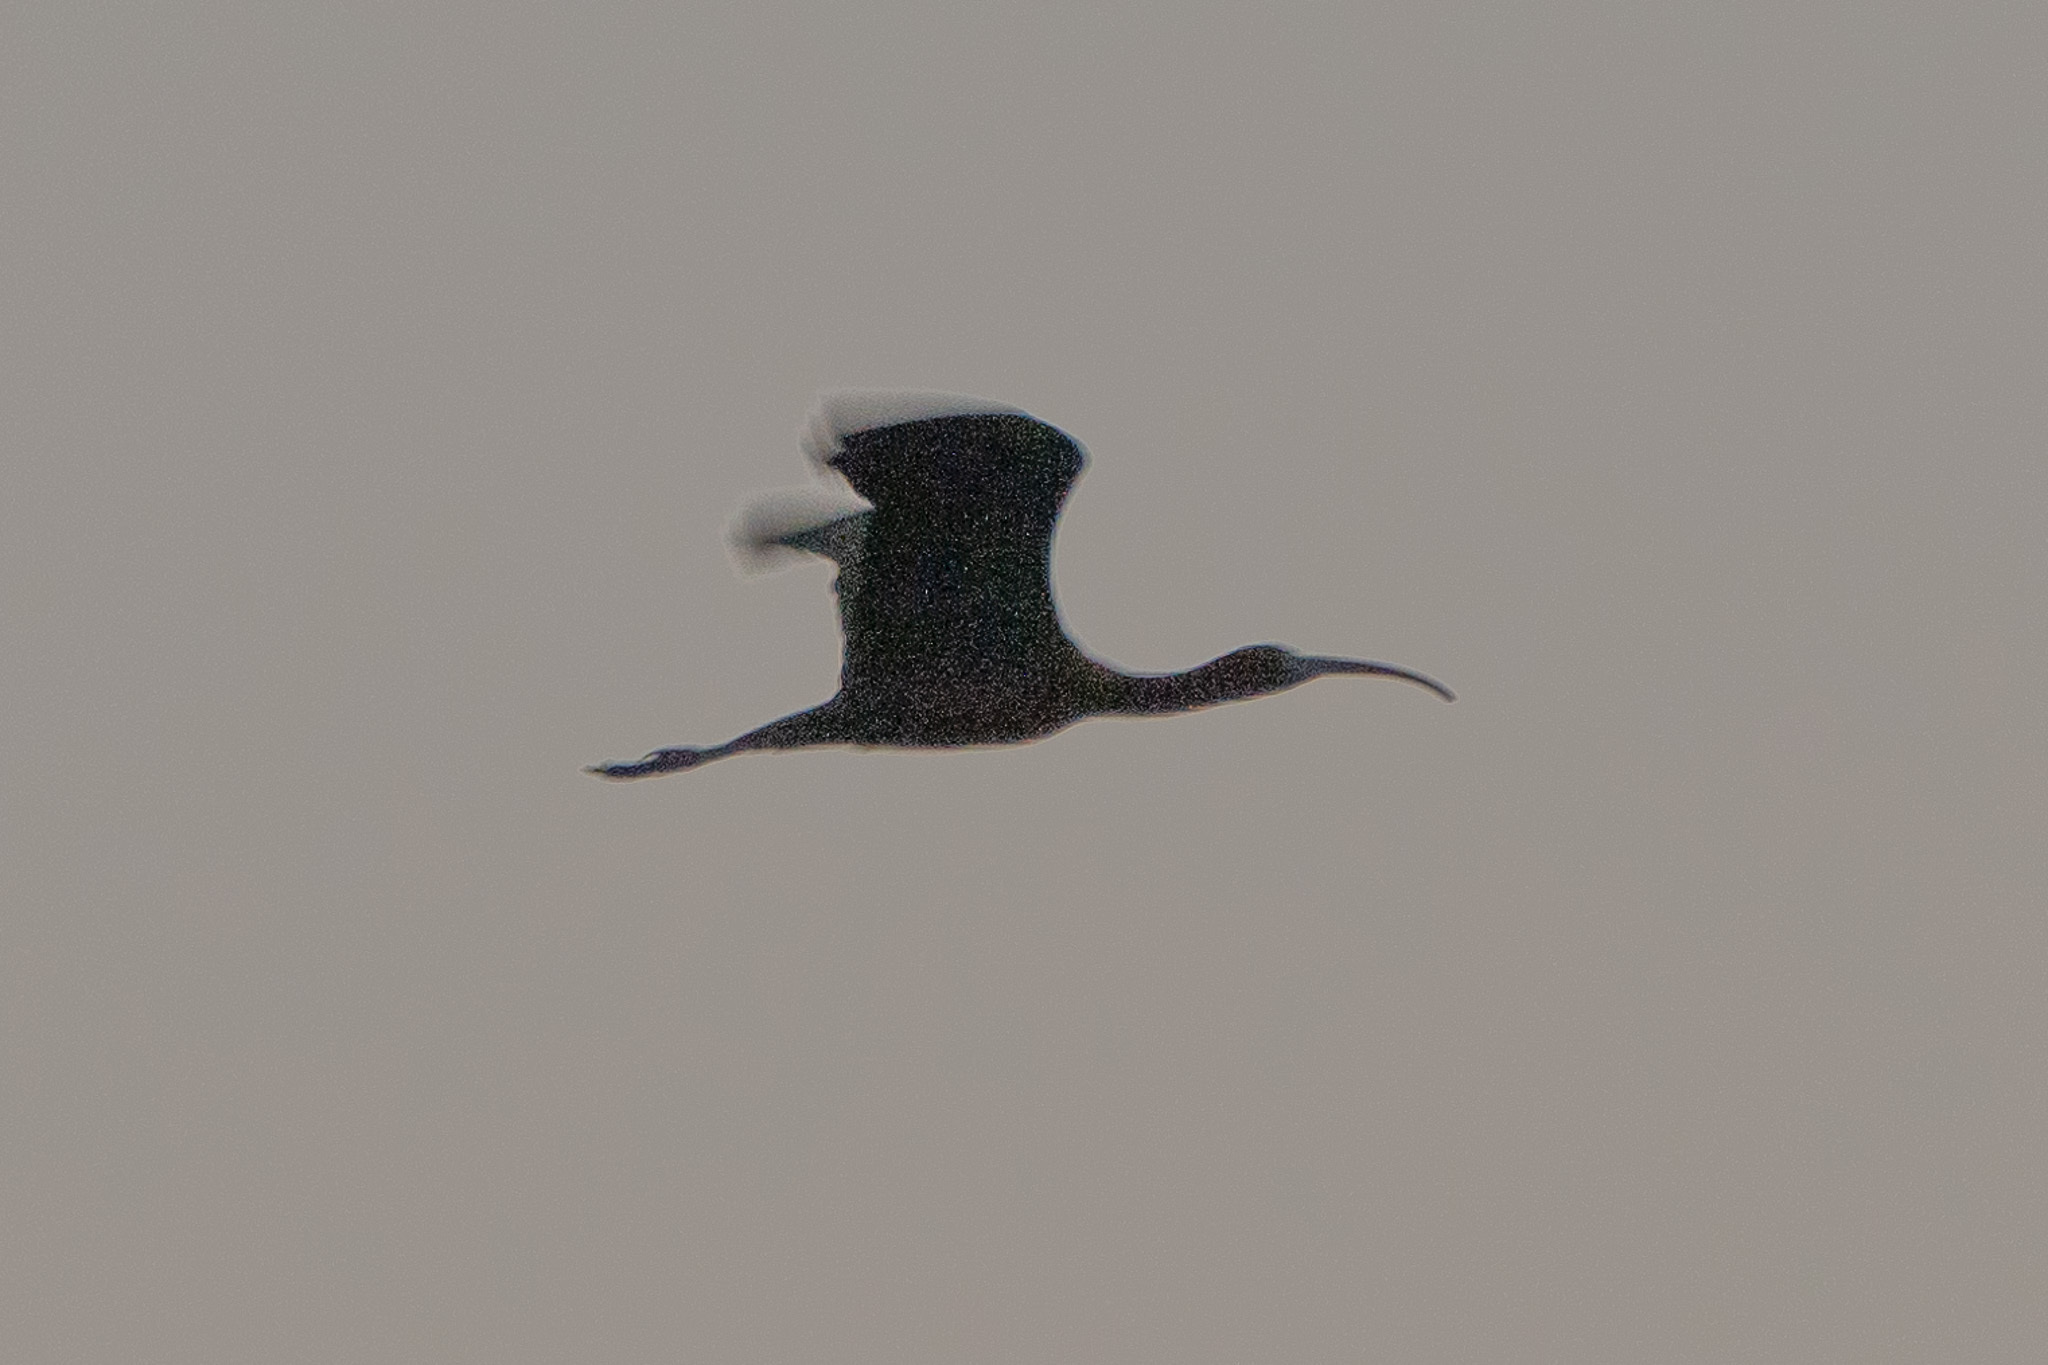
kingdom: Animalia
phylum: Chordata
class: Aves
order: Pelecaniformes
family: Threskiornithidae
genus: Plegadis
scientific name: Plegadis falcinellus
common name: Glossy ibis
